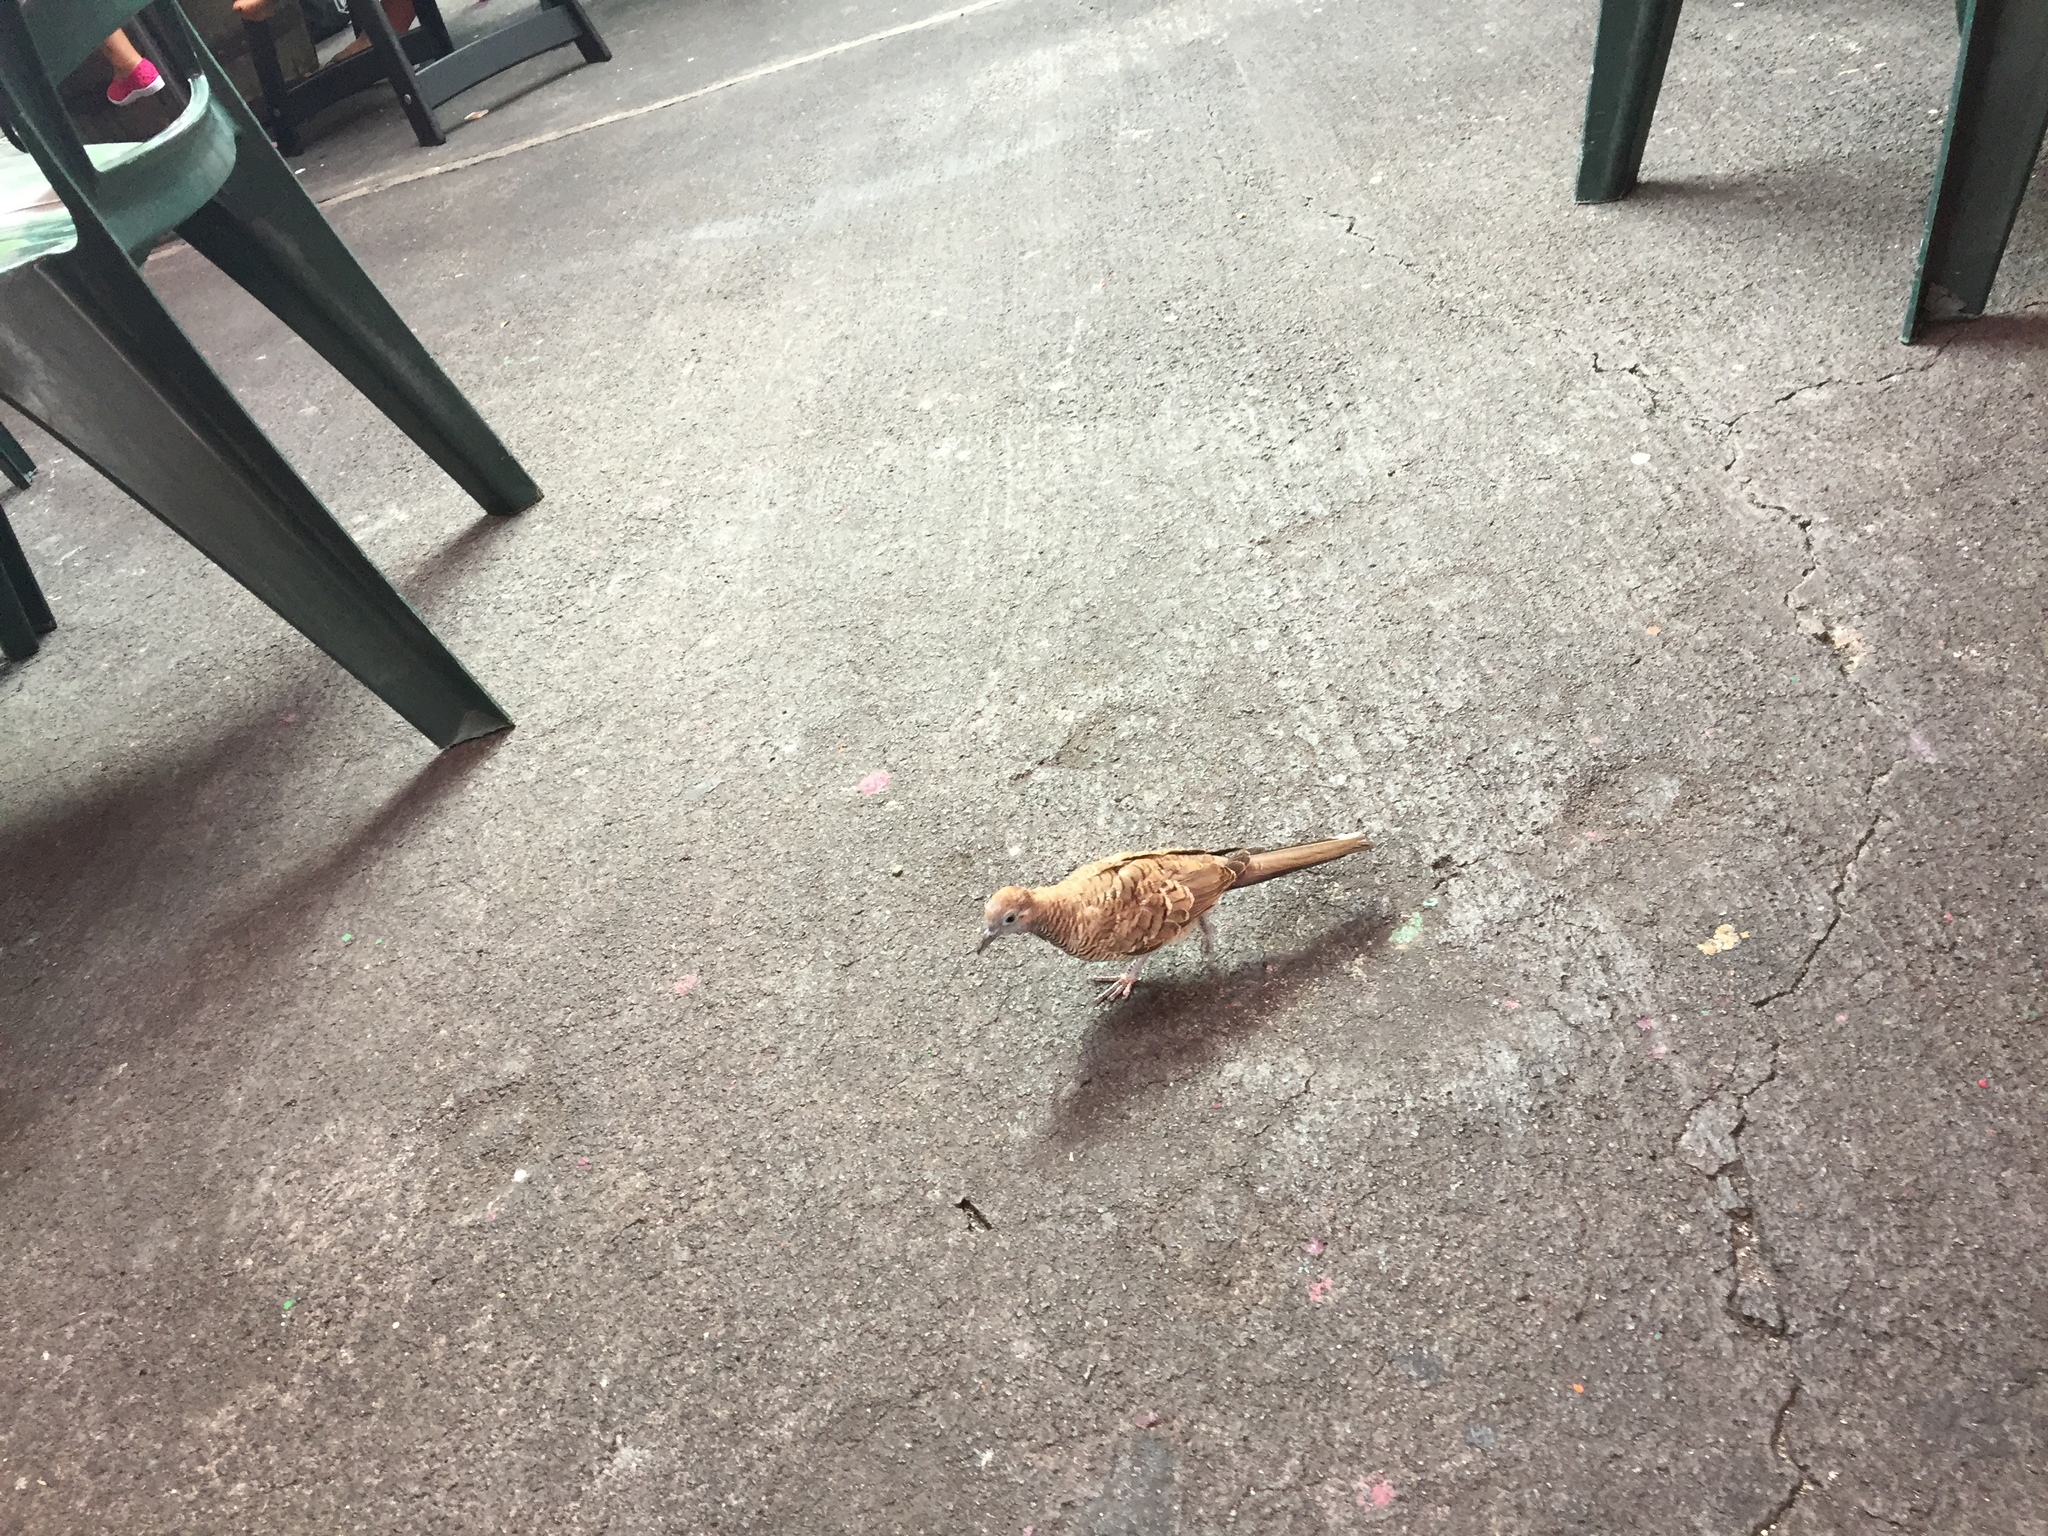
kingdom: Animalia
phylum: Chordata
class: Aves
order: Columbiformes
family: Columbidae
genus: Geopelia
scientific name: Geopelia striata
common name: Zebra dove
